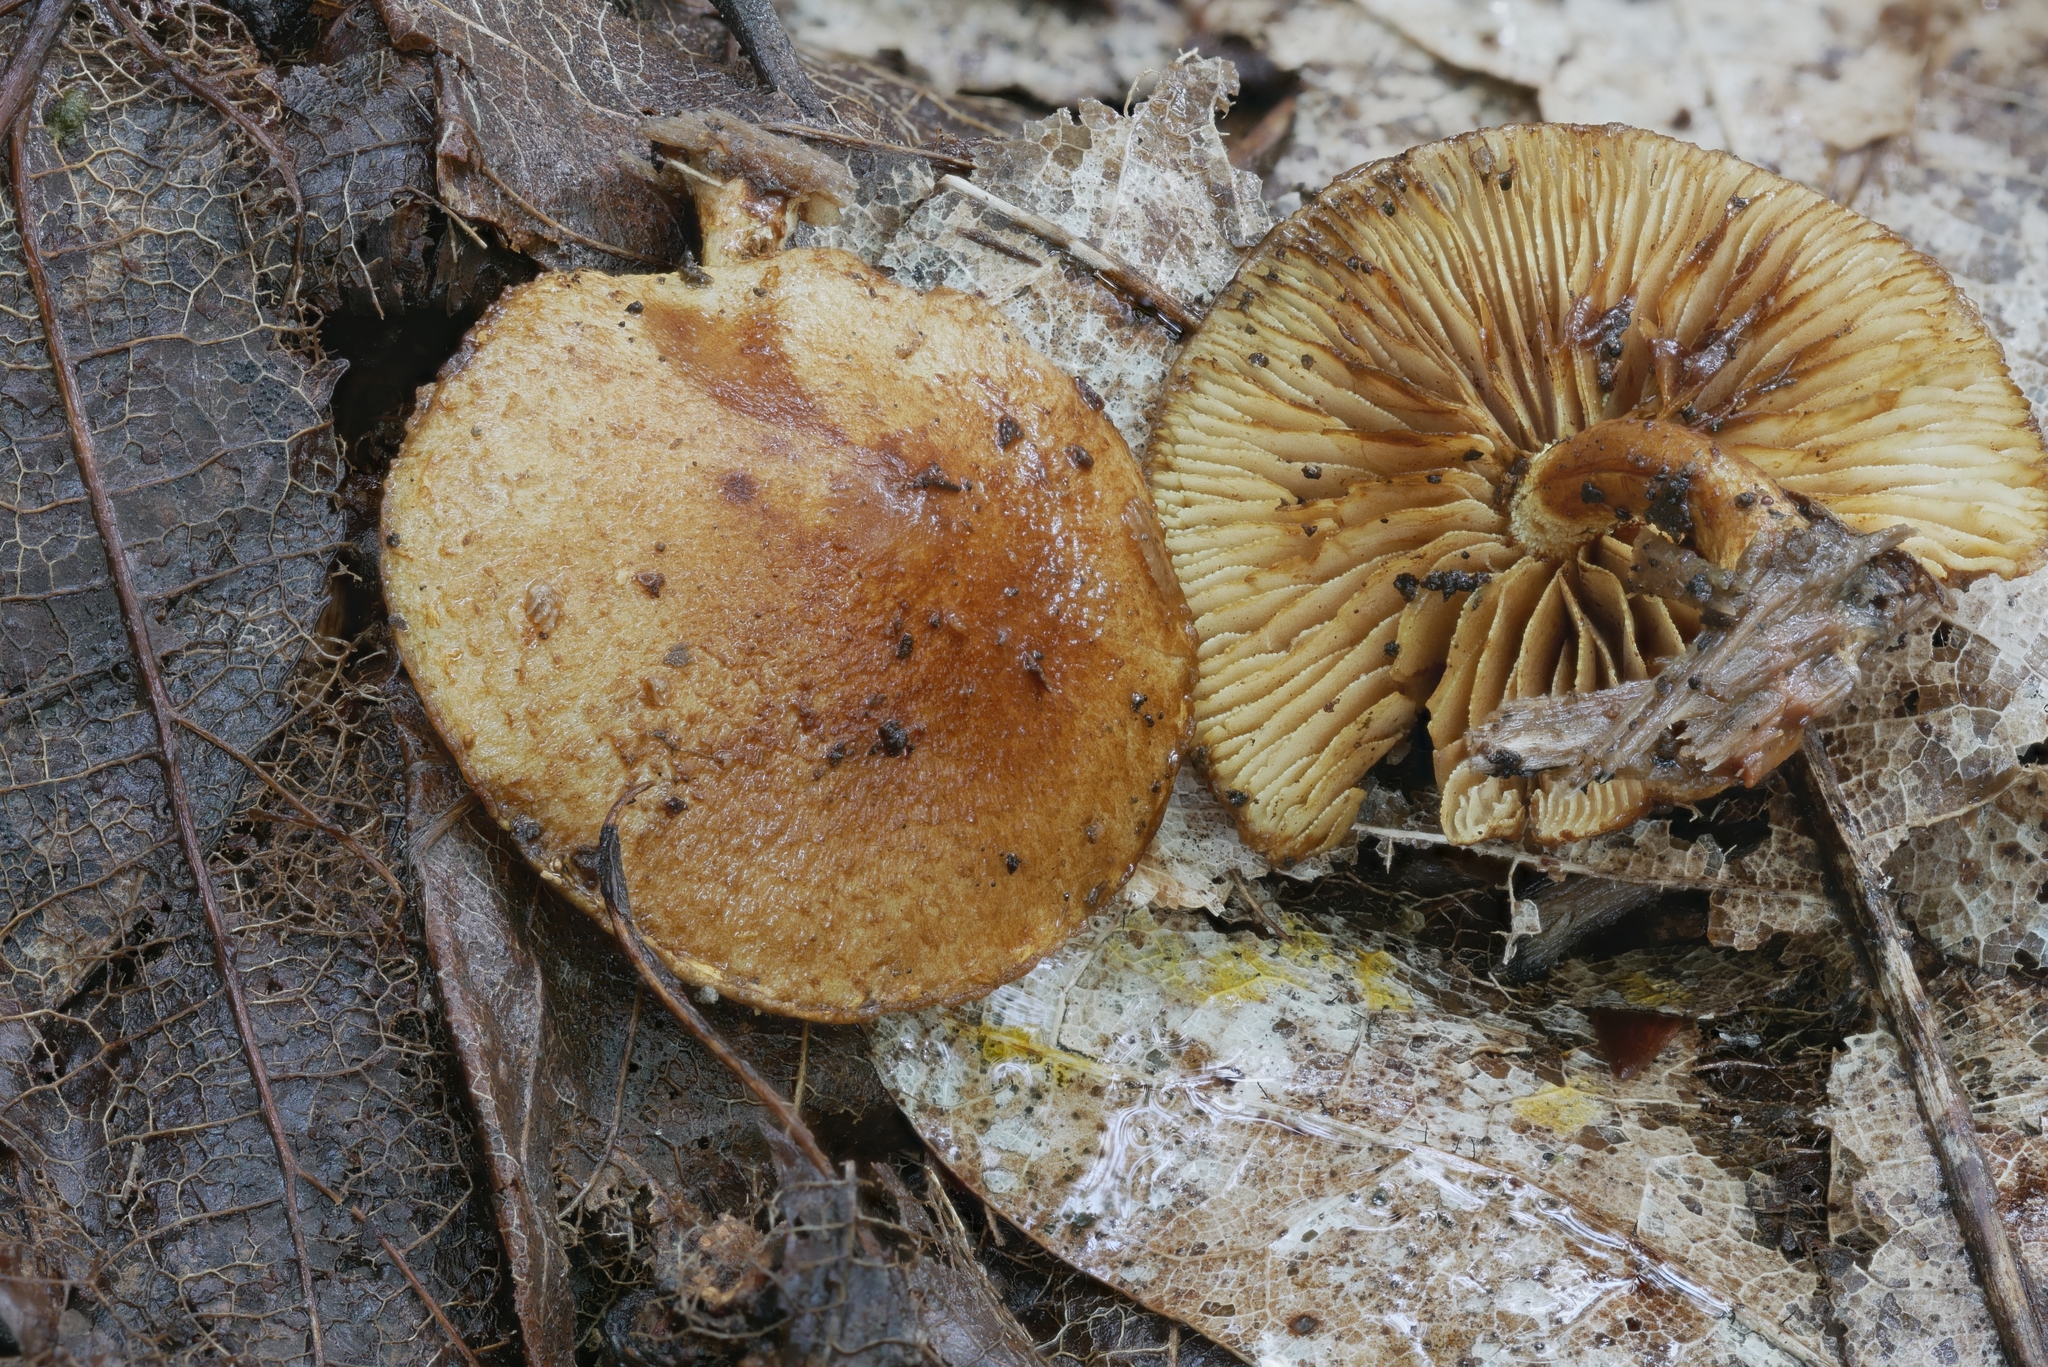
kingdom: Fungi
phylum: Basidiomycota
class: Agaricomycetes
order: Agaricales
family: Crepidotaceae
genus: Pleuroflammula
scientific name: Pleuroflammula multifolia
